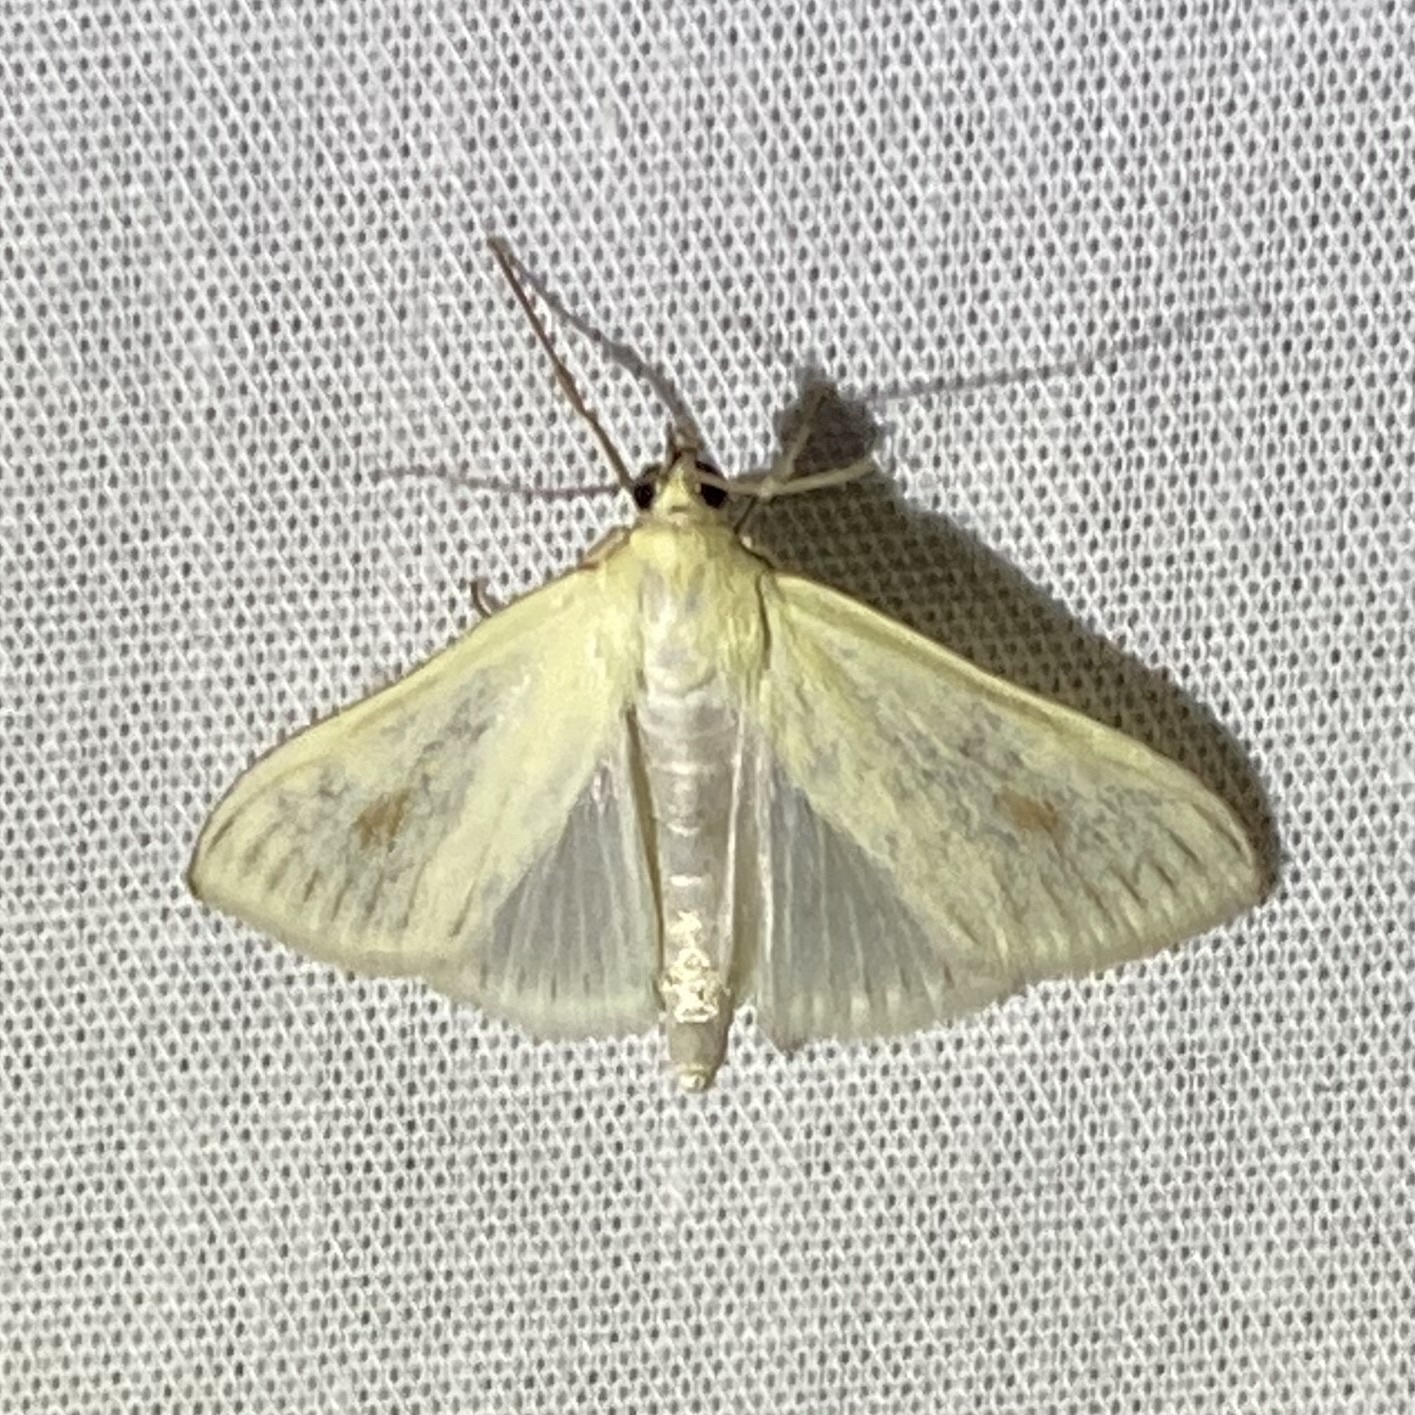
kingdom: Animalia
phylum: Arthropoda
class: Insecta
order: Lepidoptera
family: Crambidae
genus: Sitochroa
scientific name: Sitochroa palealis
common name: Greenish-yellow sitochroa moth
